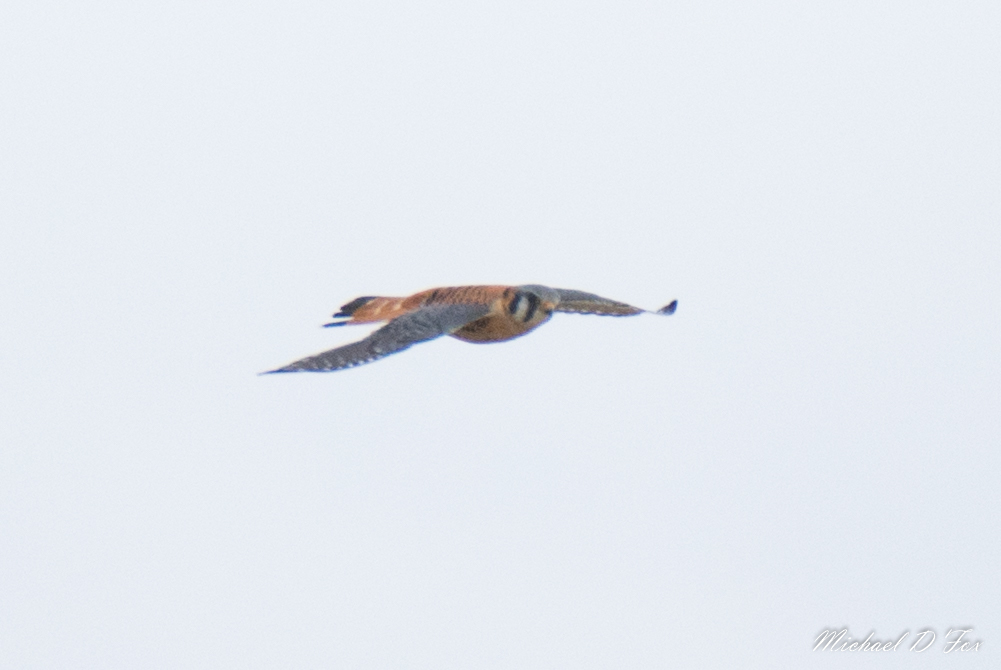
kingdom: Animalia
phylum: Chordata
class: Aves
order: Falconiformes
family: Falconidae
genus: Falco
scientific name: Falco sparverius
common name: American kestrel
